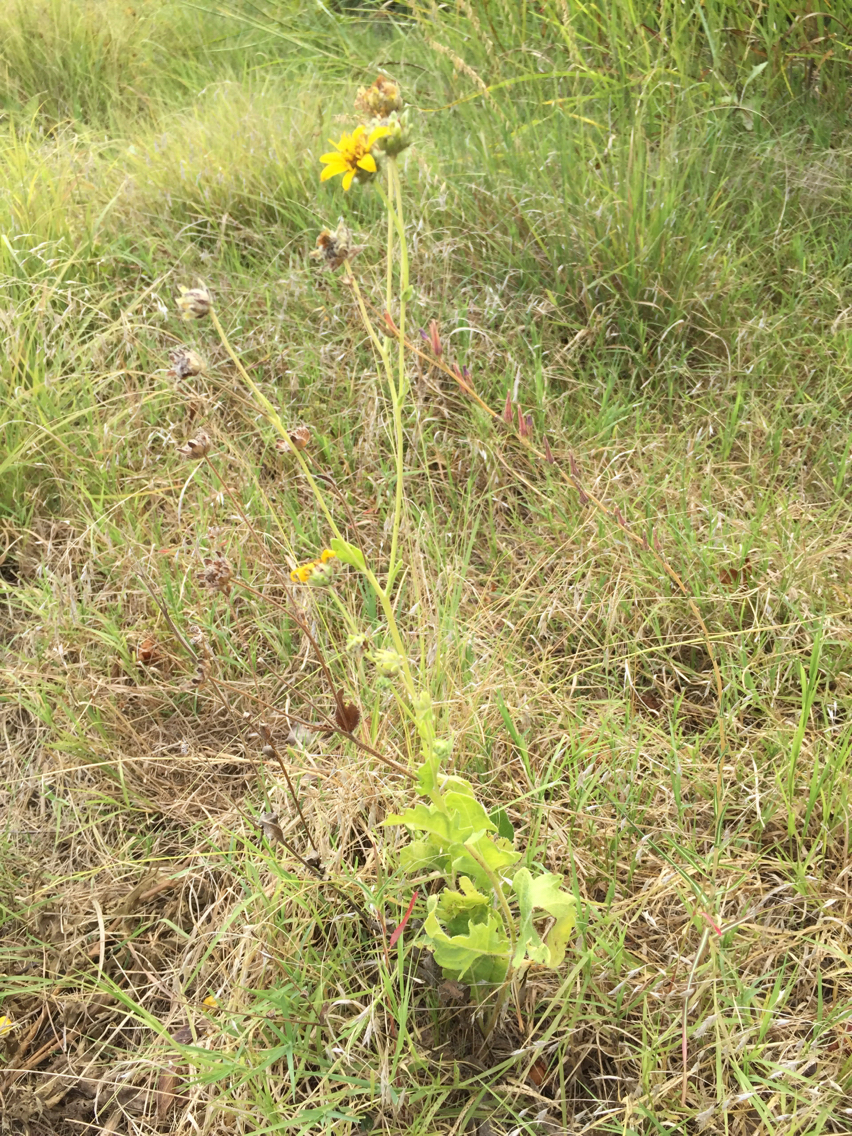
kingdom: Plantae
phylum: Tracheophyta
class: Magnoliopsida
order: Asterales
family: Asteraceae
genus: Engelmannia
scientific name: Engelmannia peristenia
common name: Engelmann's daisy
